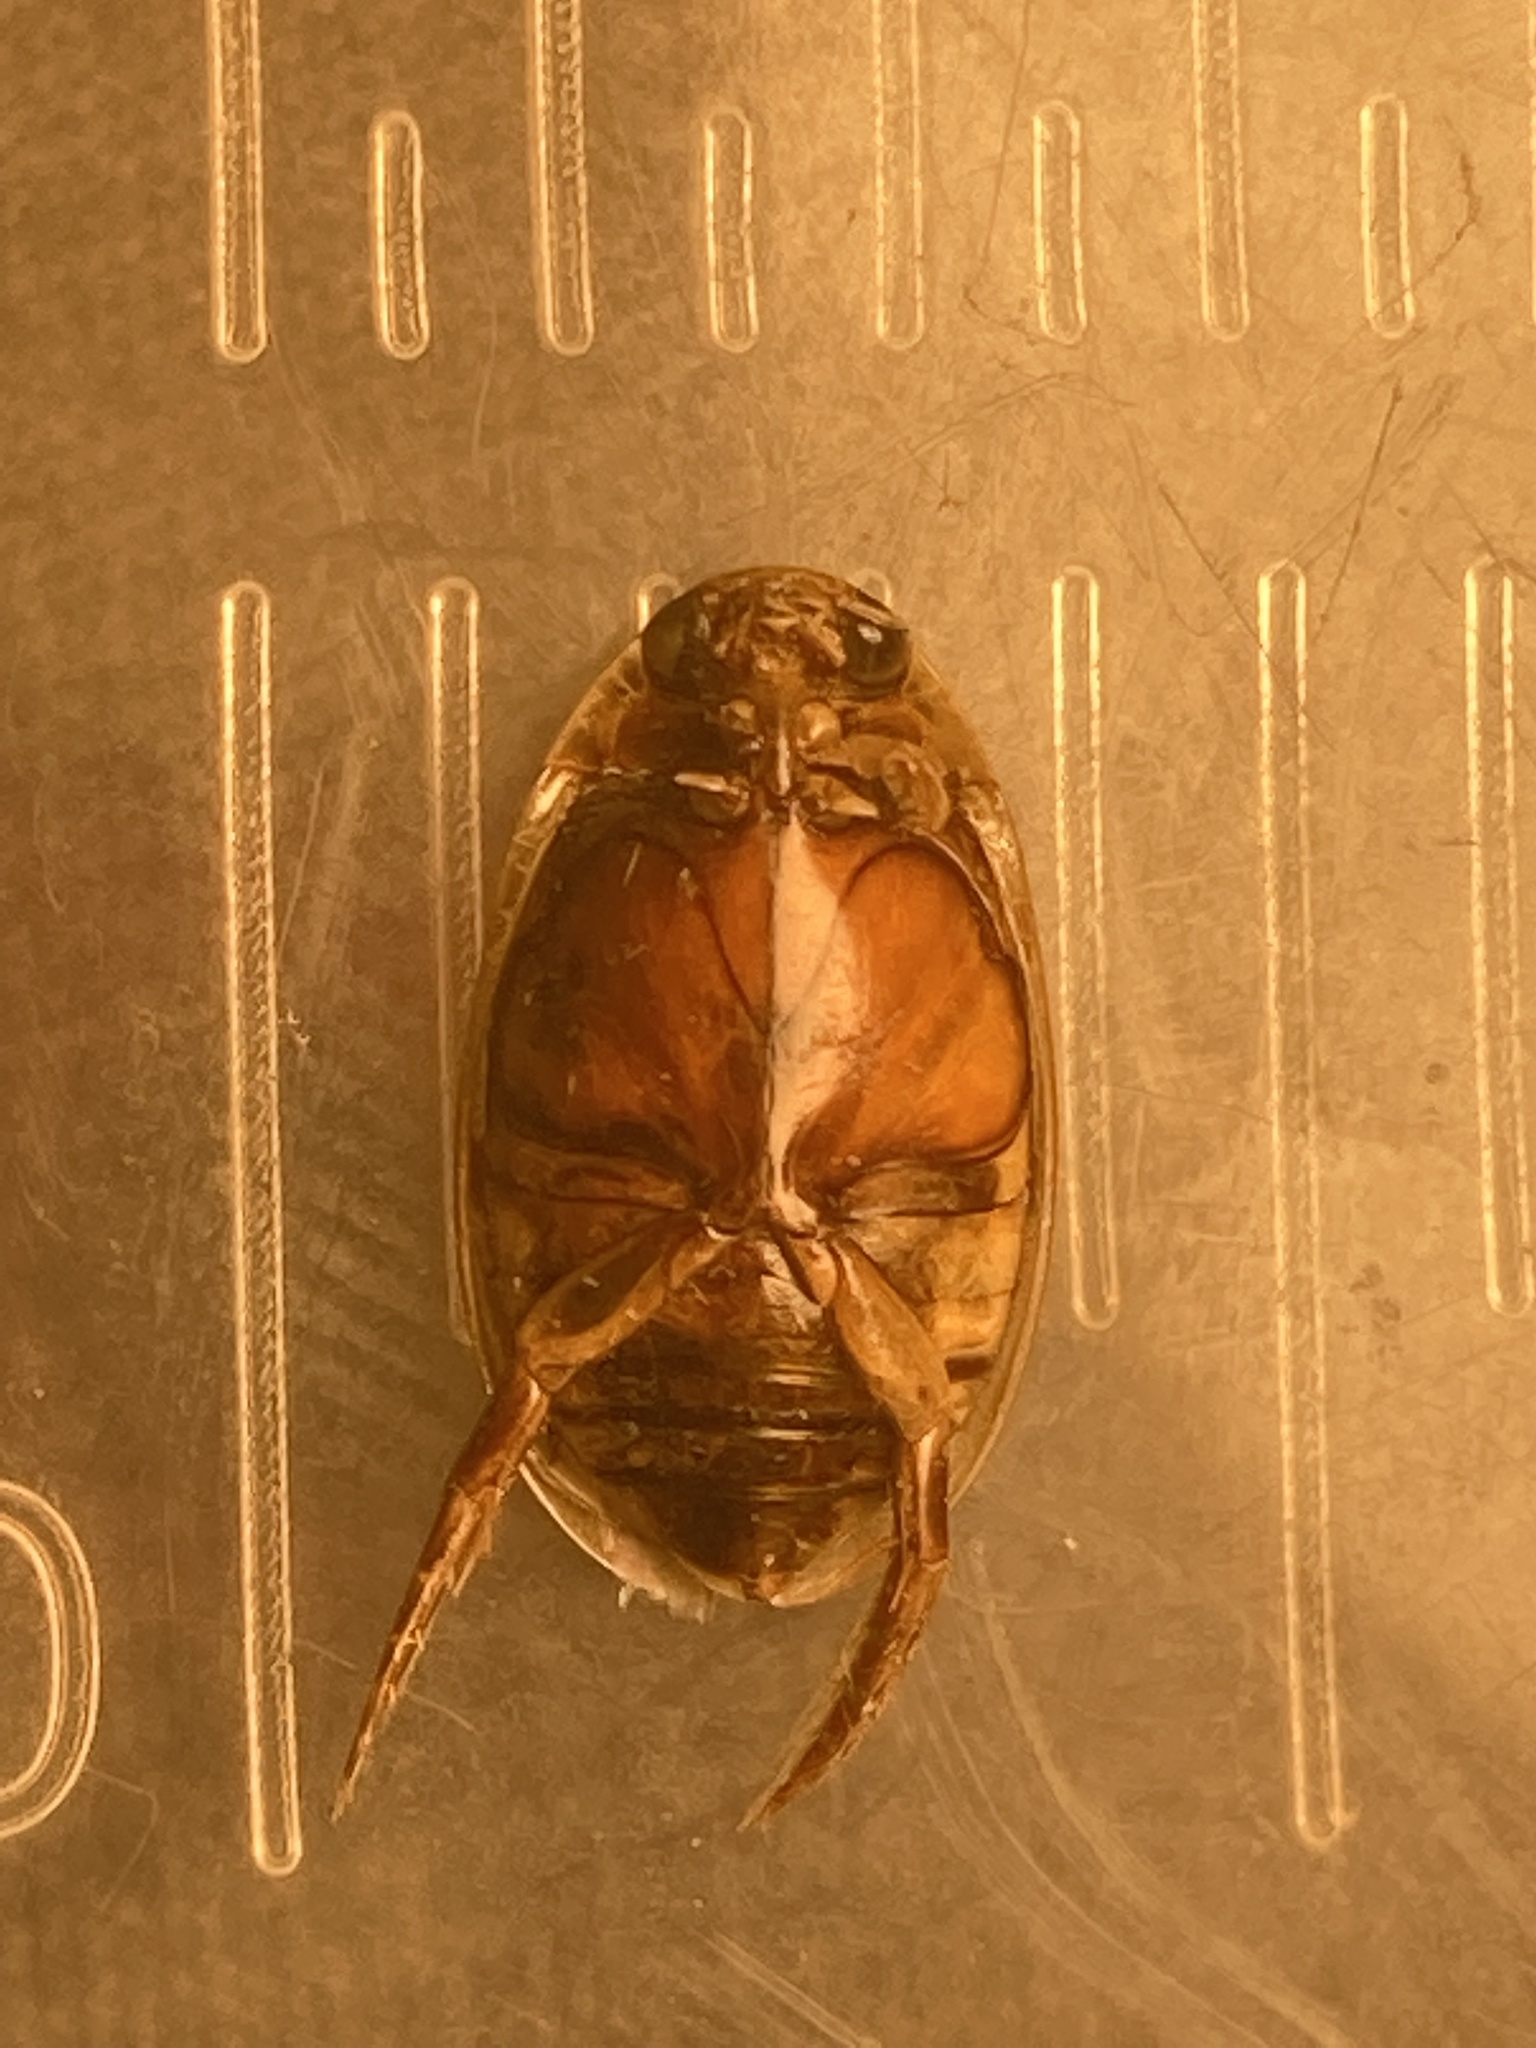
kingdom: Animalia
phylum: Arthropoda
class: Insecta
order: Coleoptera
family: Dytiscidae
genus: Thermonectus
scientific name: Thermonectus basillaris
